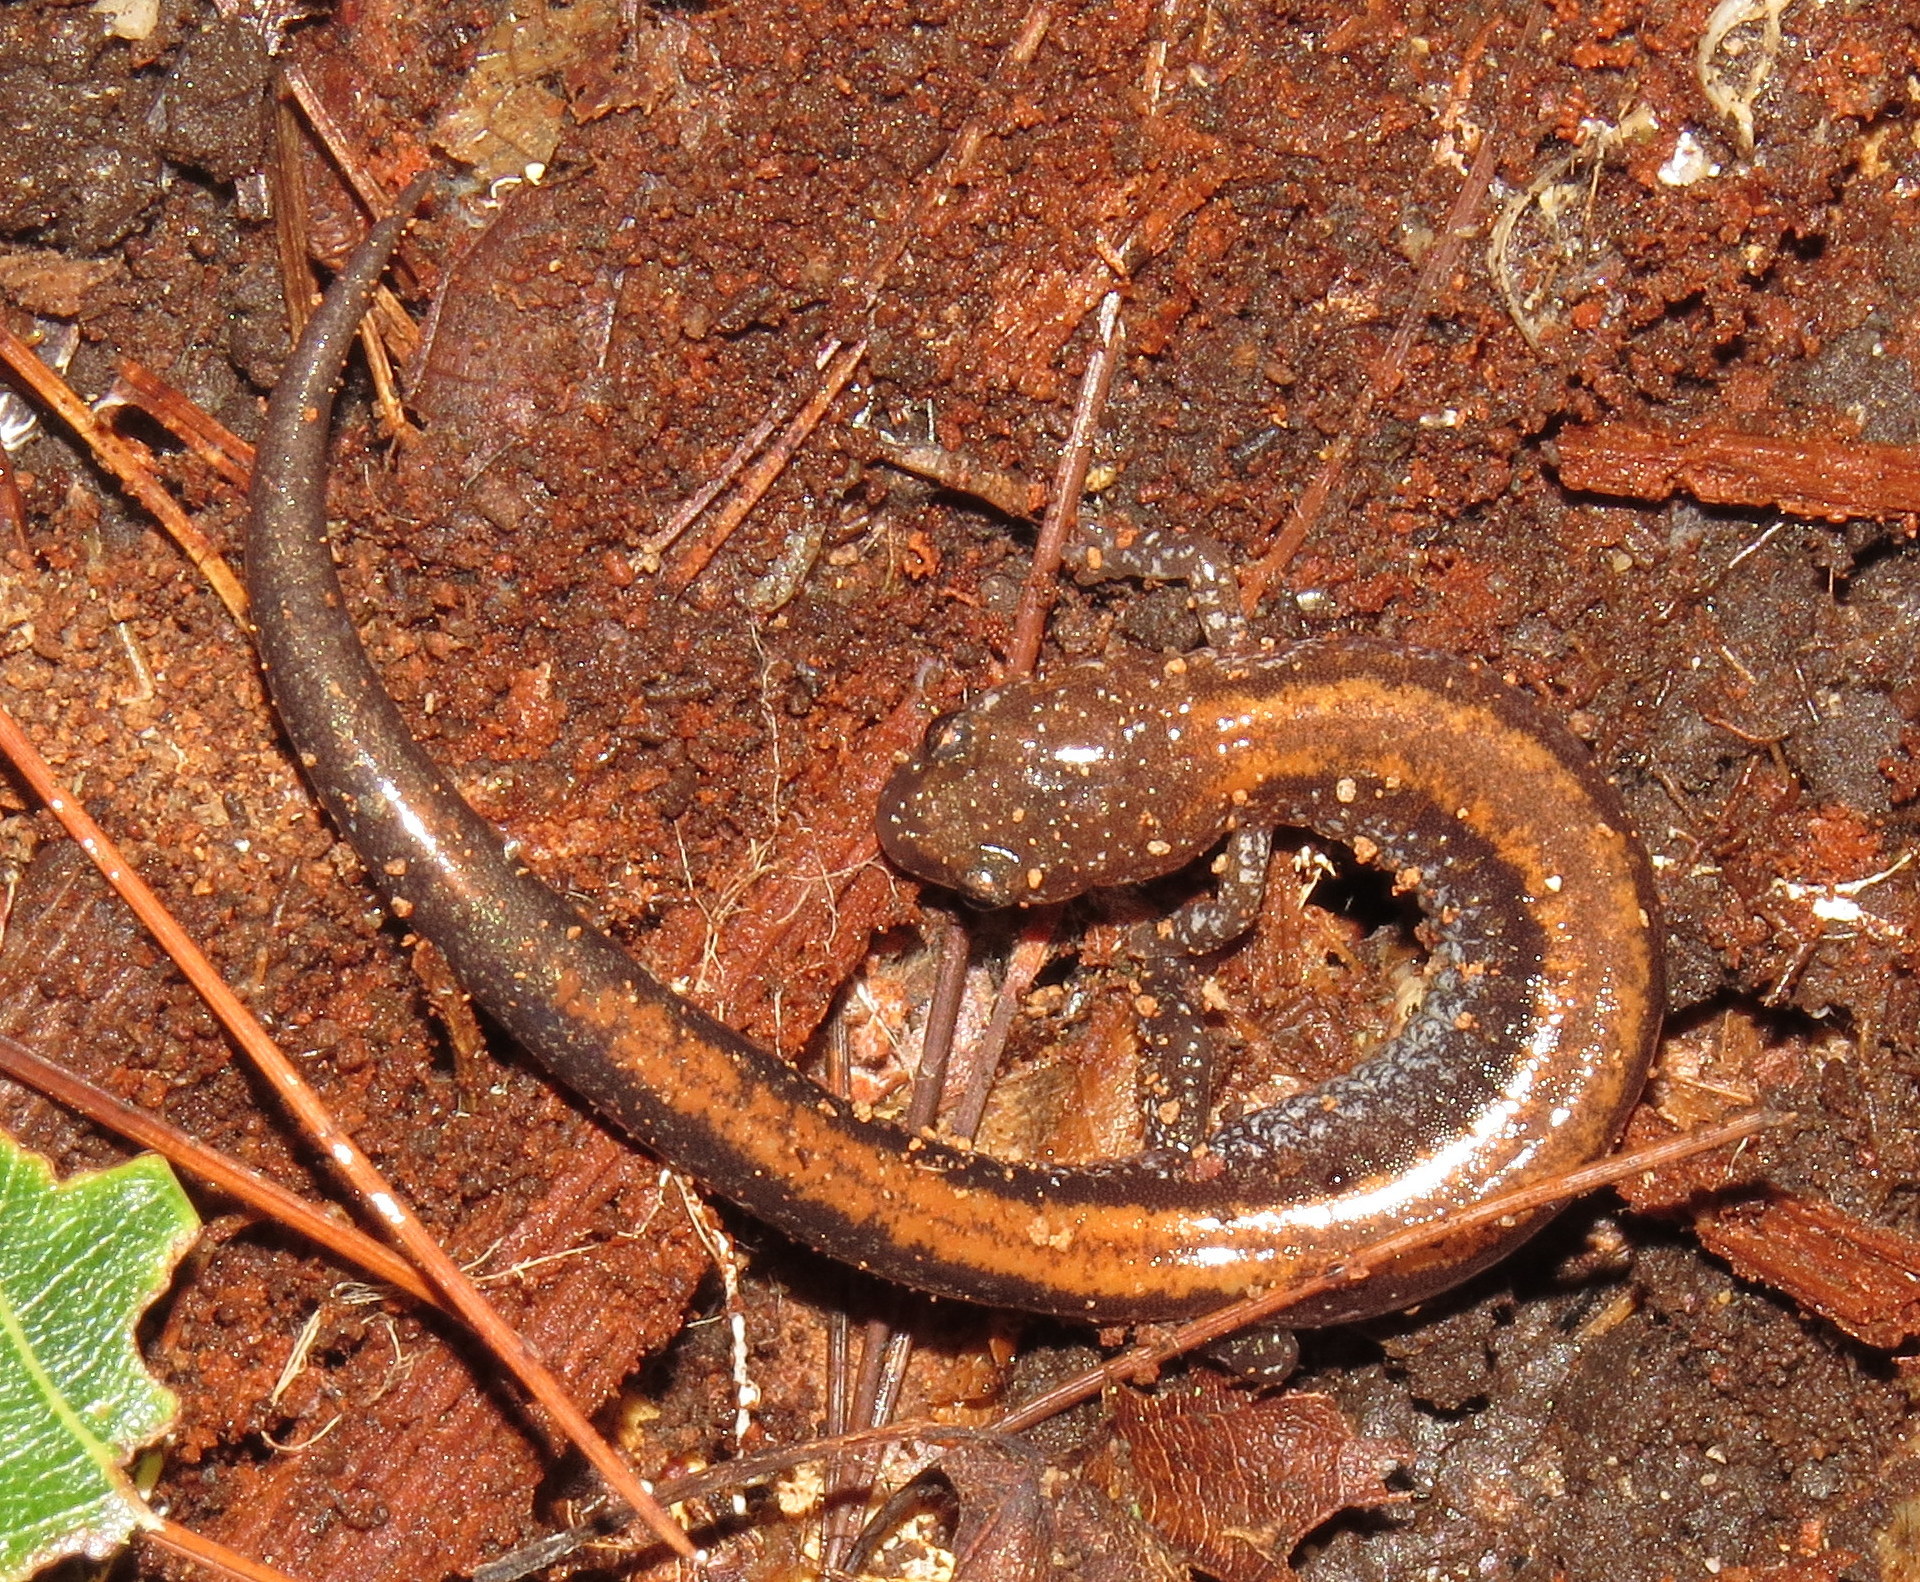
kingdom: Animalia
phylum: Chordata
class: Amphibia
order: Caudata
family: Plethodontidae
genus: Plethodon
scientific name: Plethodon cinereus
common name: Redback salamander
